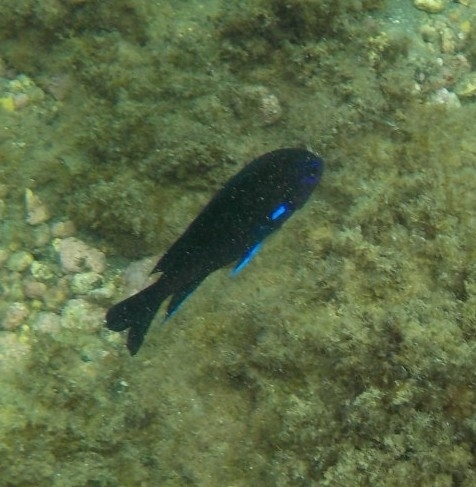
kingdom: Animalia
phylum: Chordata
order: Perciformes
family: Pomacentridae
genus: Similiparma
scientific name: Similiparma lurida
